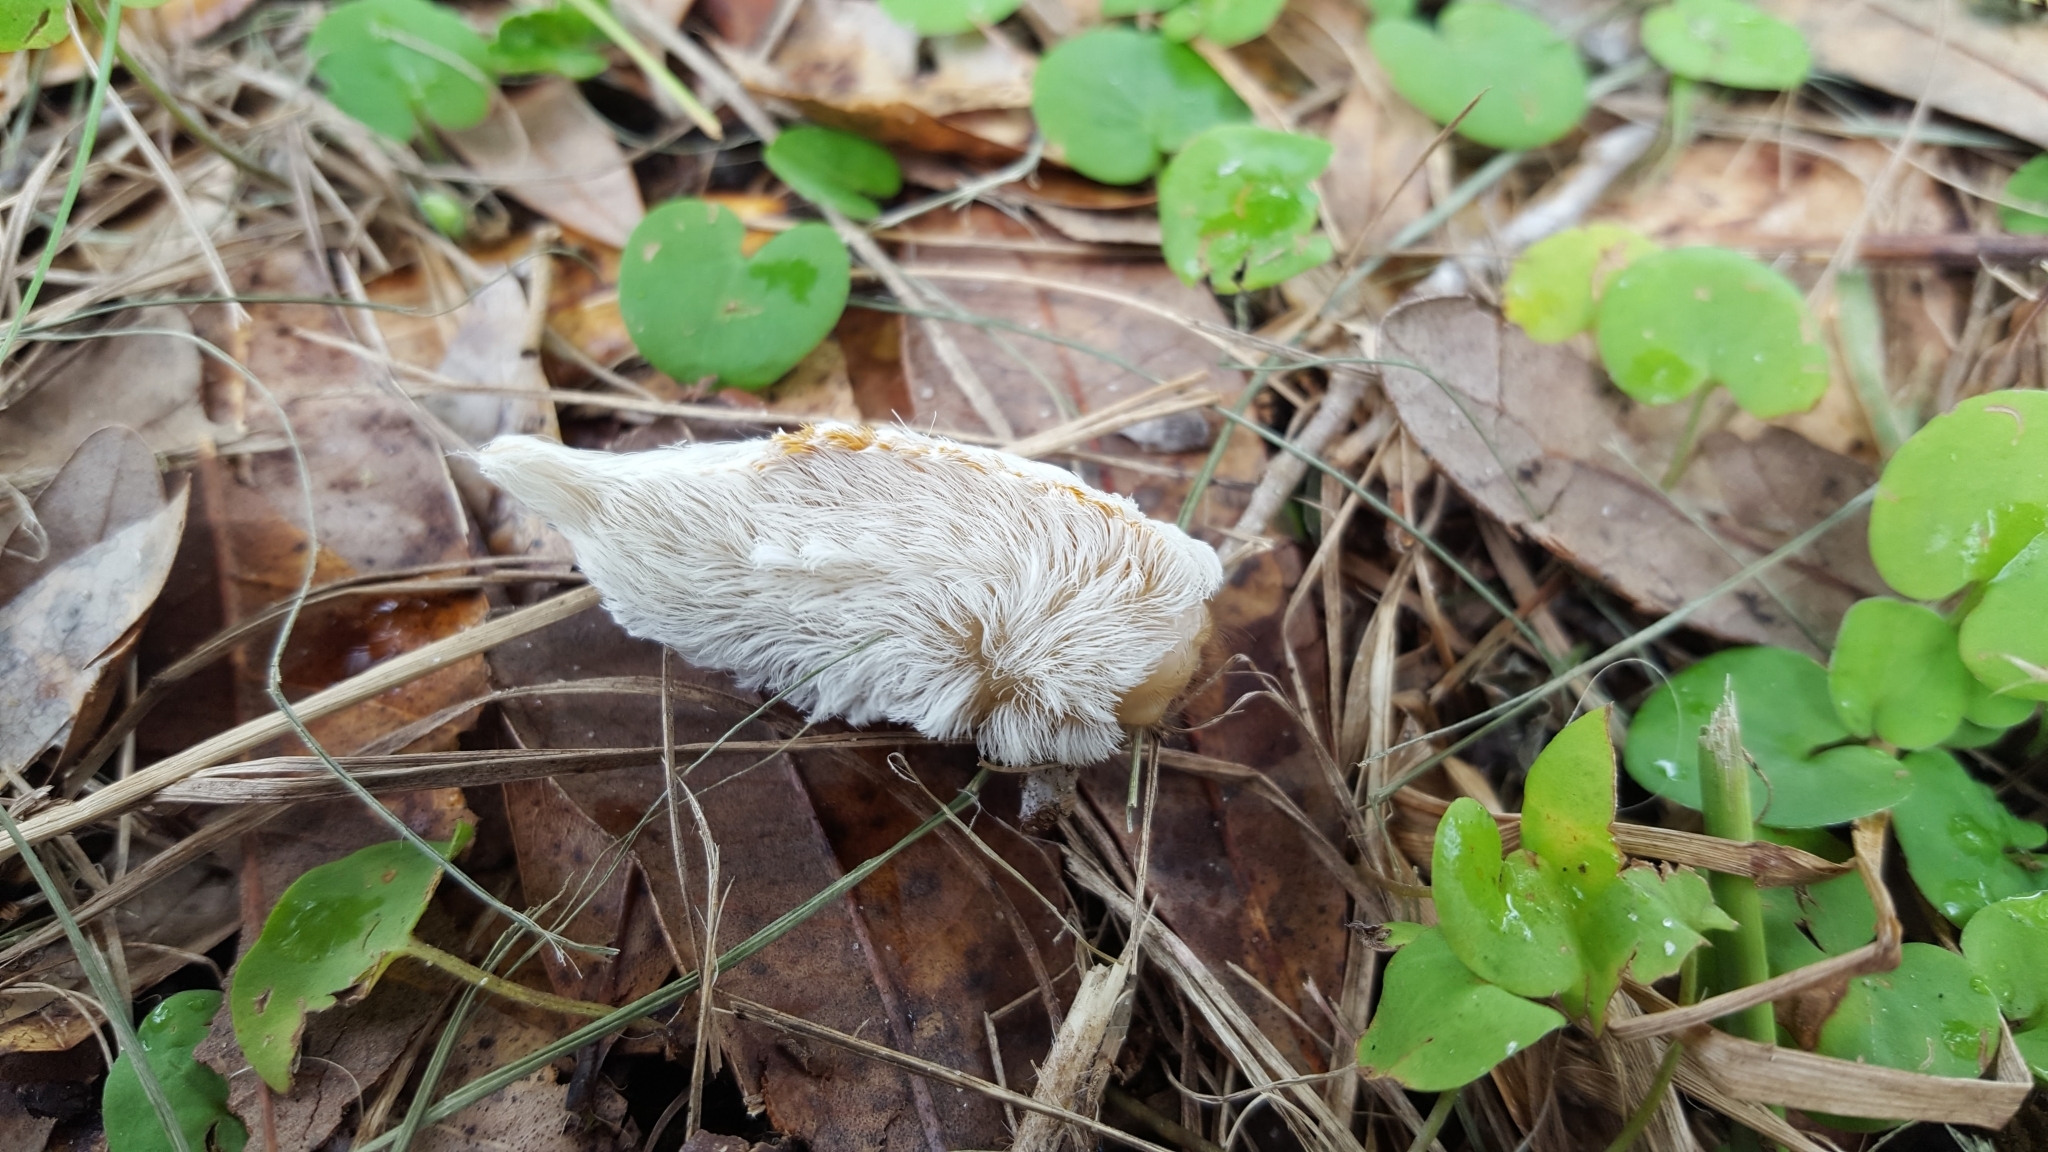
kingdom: Animalia
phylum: Arthropoda
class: Insecta
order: Lepidoptera
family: Megalopygidae
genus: Megalopyge
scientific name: Megalopyge opercularis
